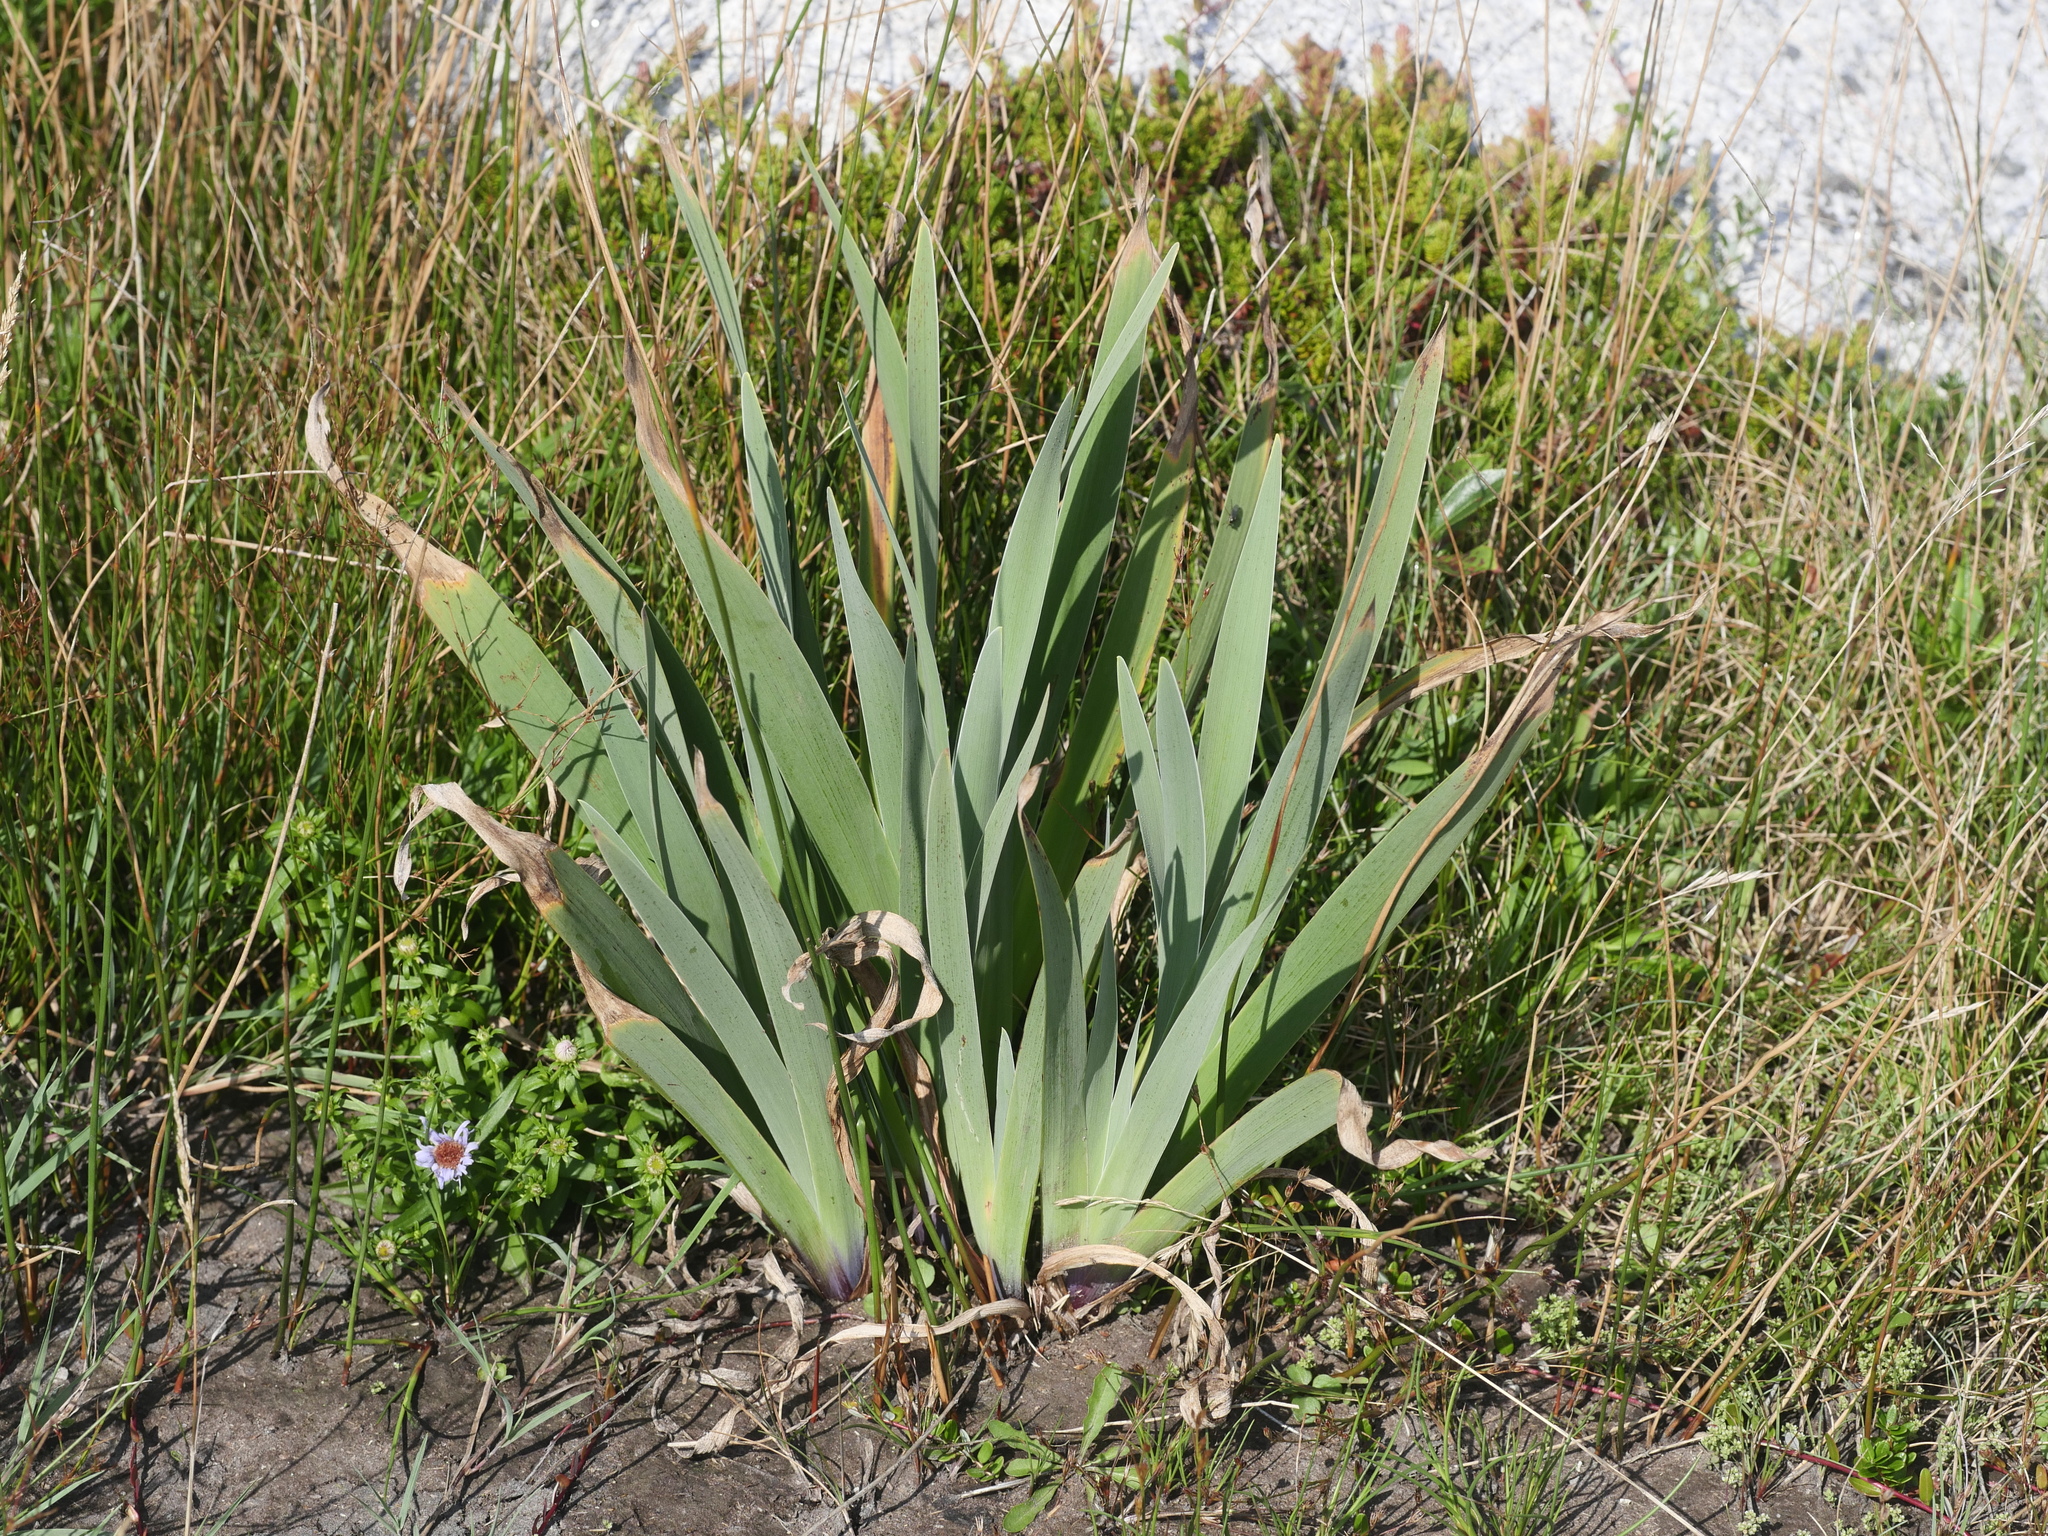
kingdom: Plantae
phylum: Tracheophyta
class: Liliopsida
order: Asparagales
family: Iridaceae
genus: Iris
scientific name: Iris versicolor
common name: Purple iris
